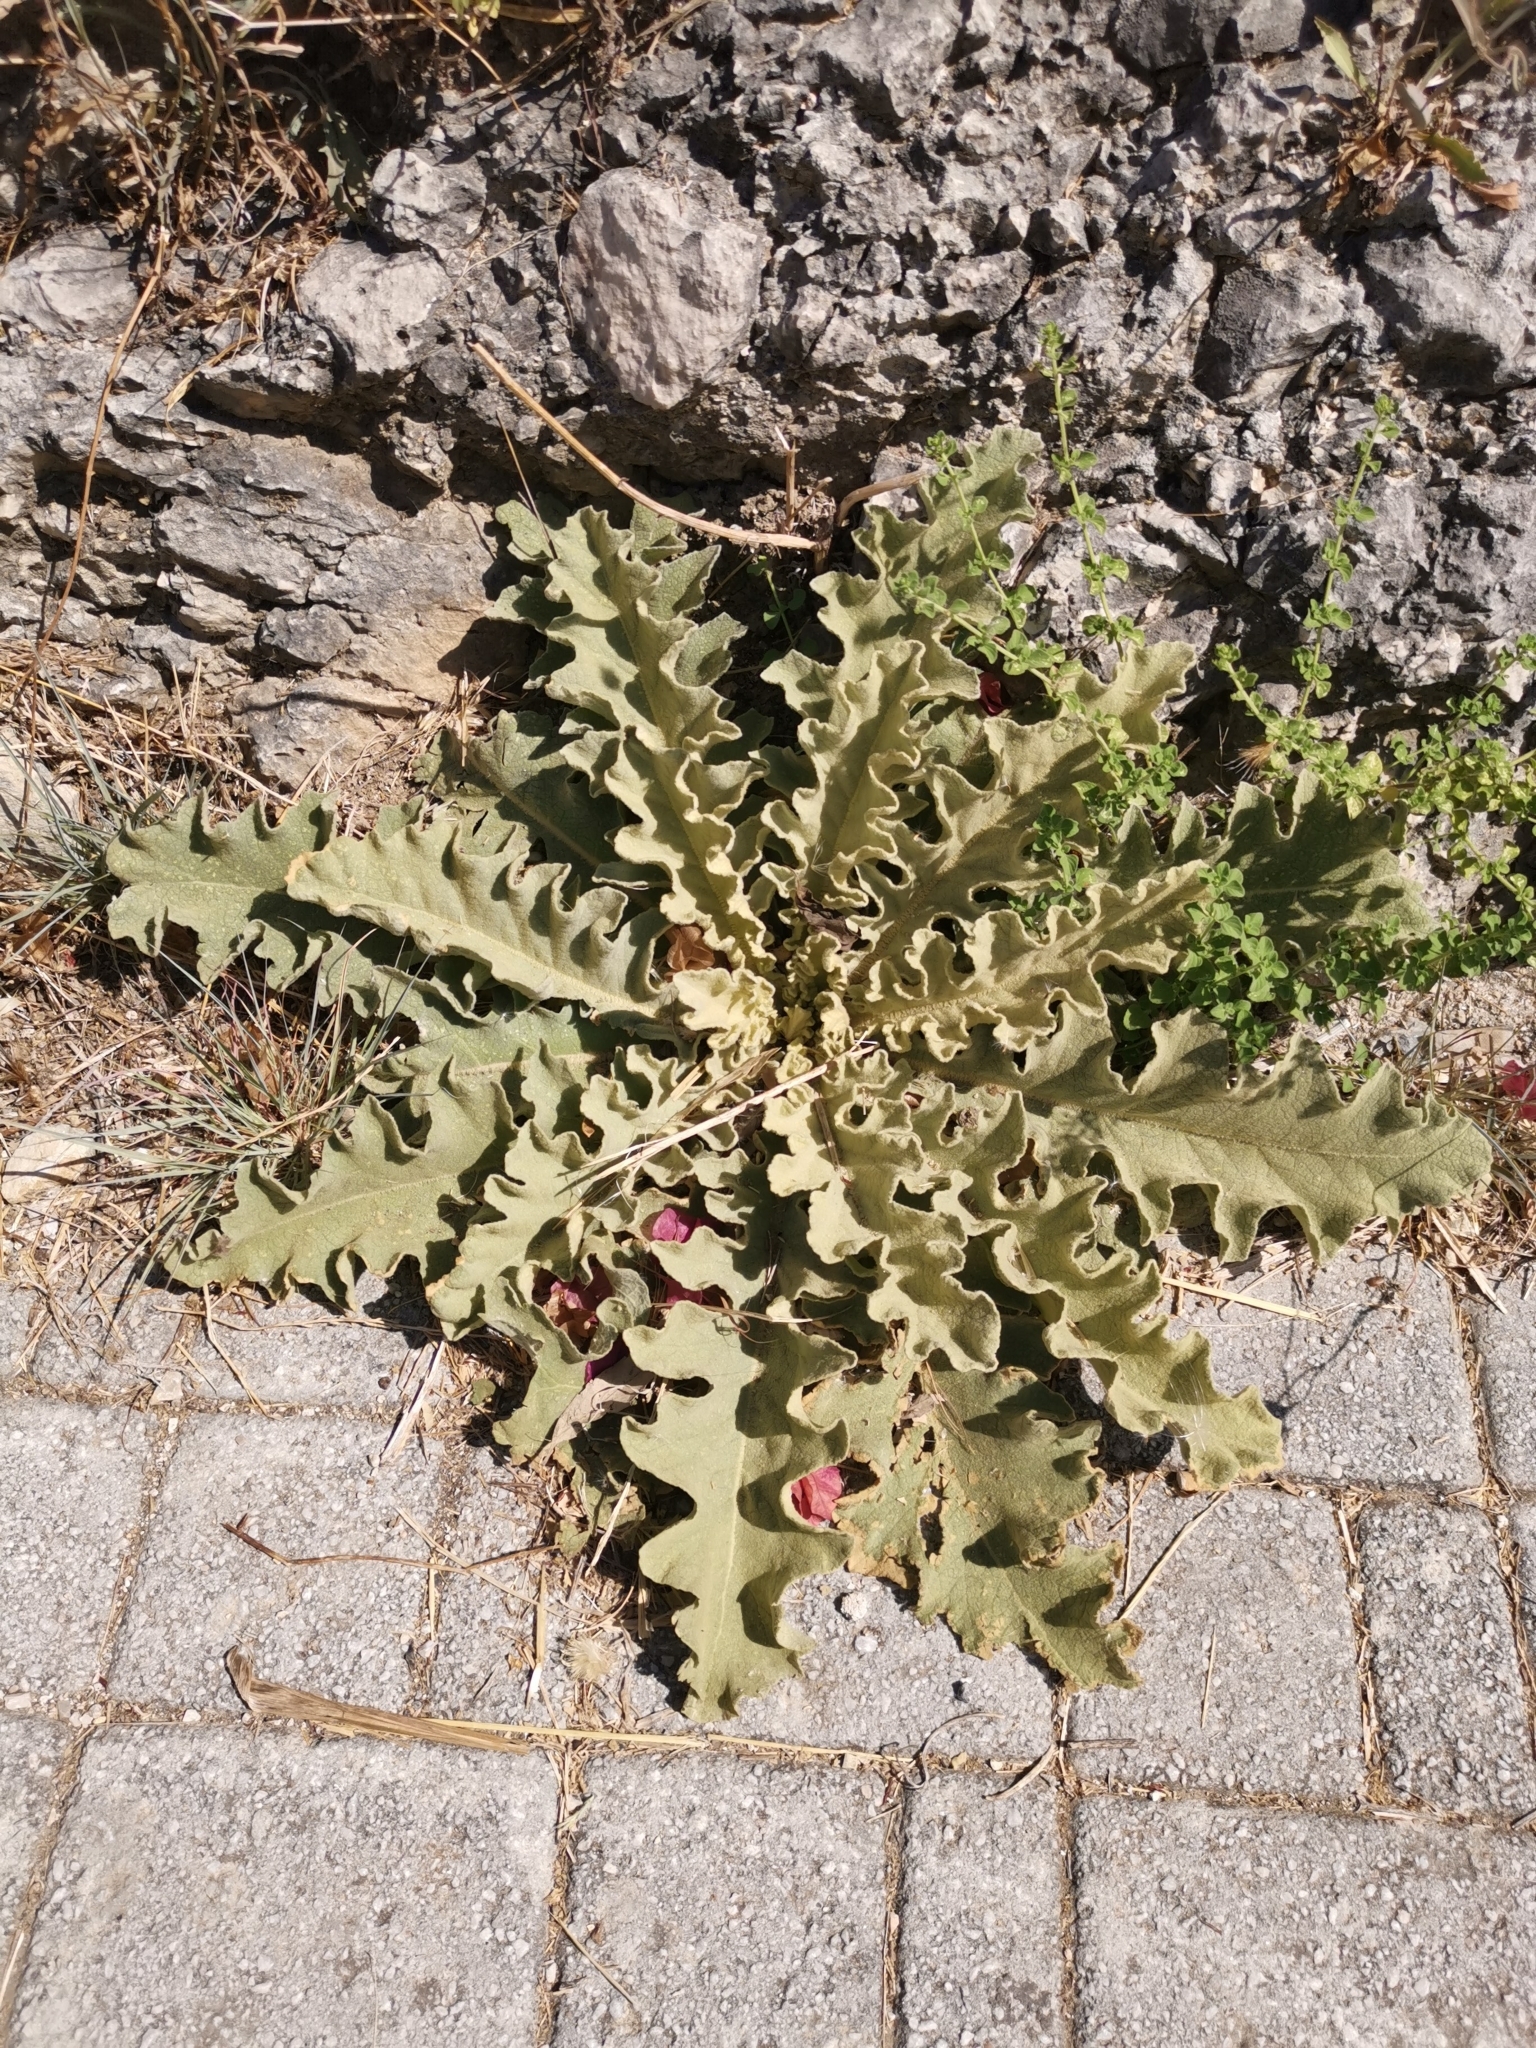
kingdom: Plantae
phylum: Tracheophyta
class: Magnoliopsida
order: Lamiales
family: Scrophulariaceae
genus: Verbascum
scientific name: Verbascum sinuatum
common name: Wavyleaf mullein
